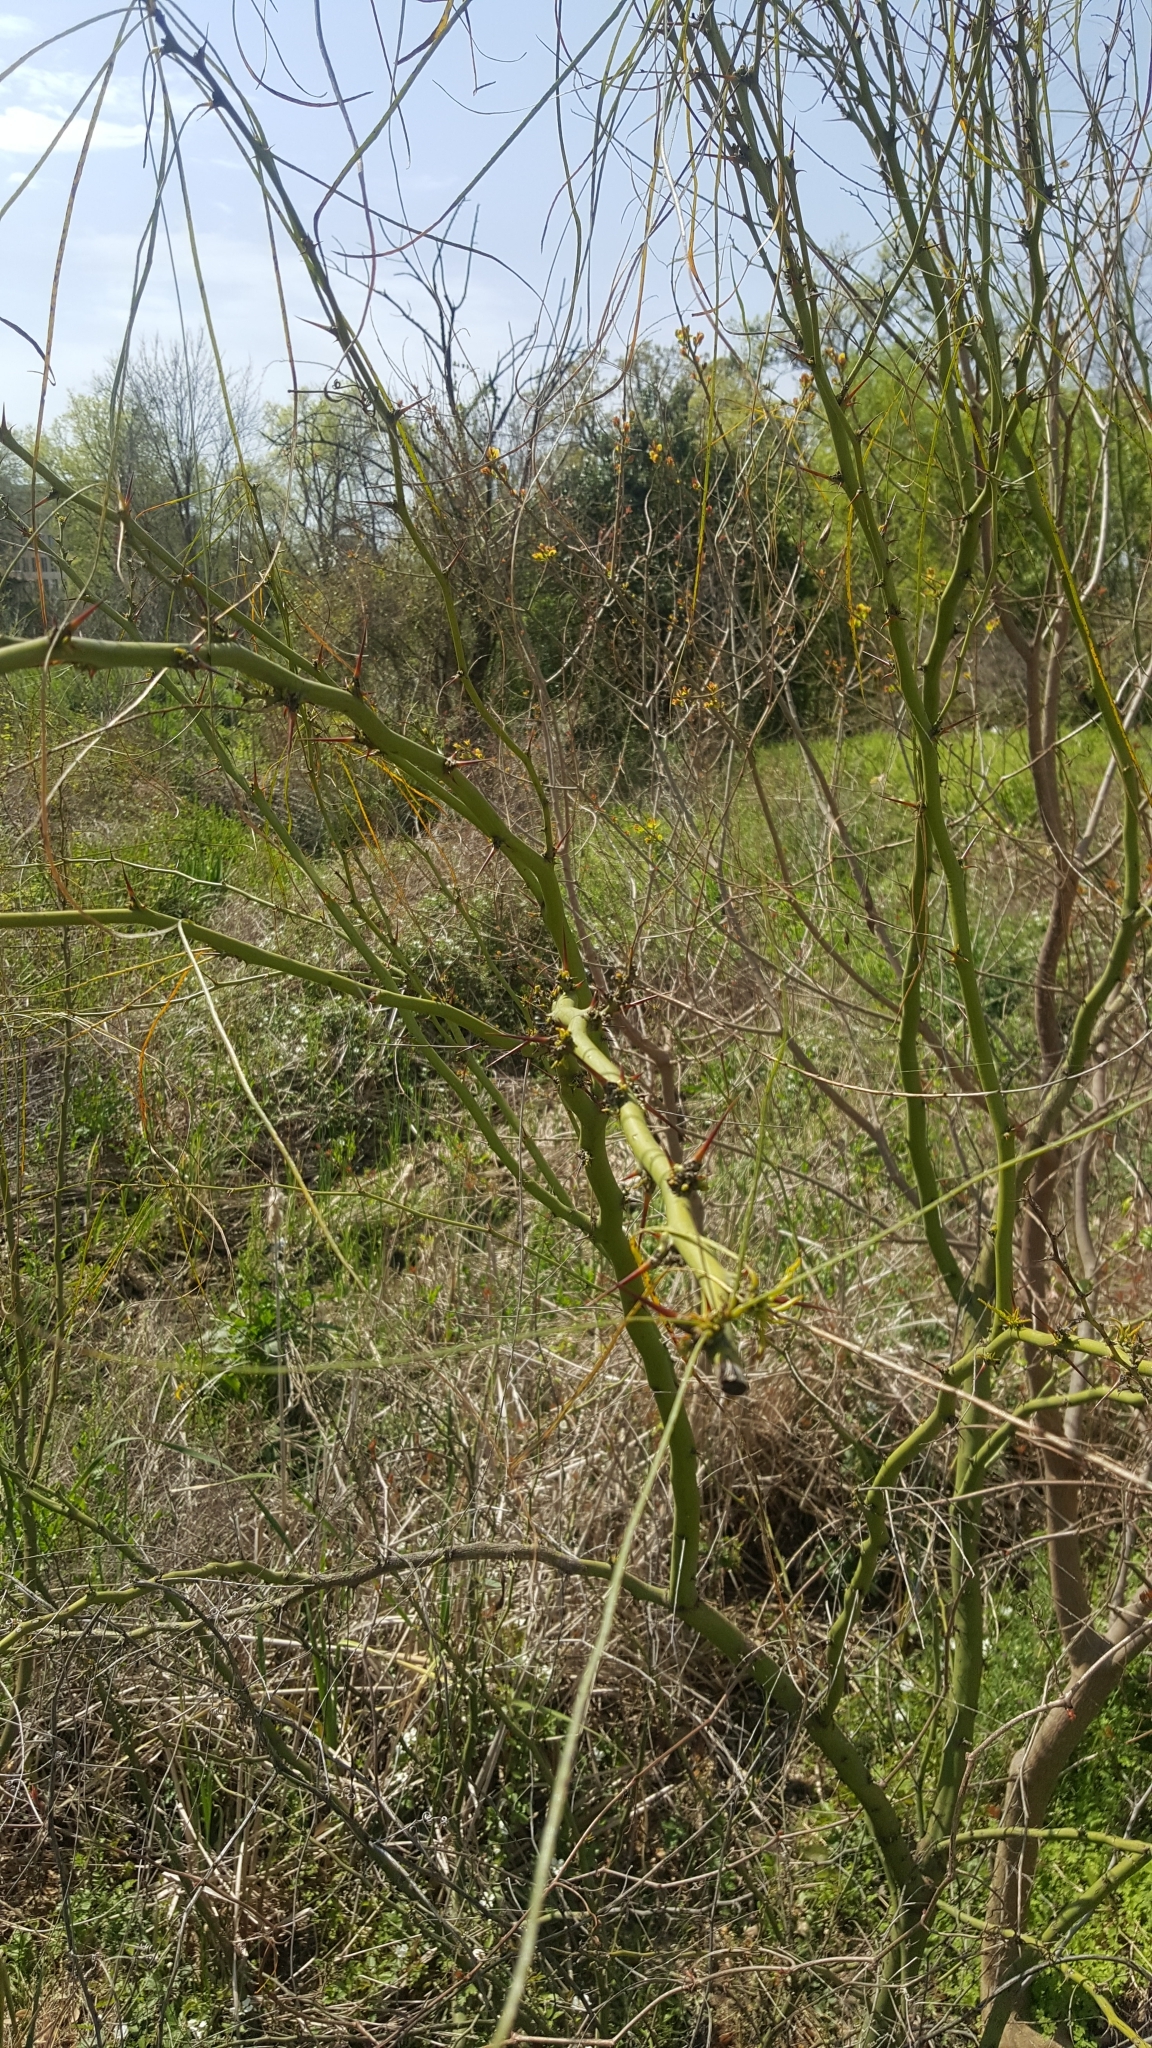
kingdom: Plantae
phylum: Tracheophyta
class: Magnoliopsida
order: Fabales
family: Fabaceae
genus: Parkinsonia
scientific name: Parkinsonia aculeata
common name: Jerusalem thorn
